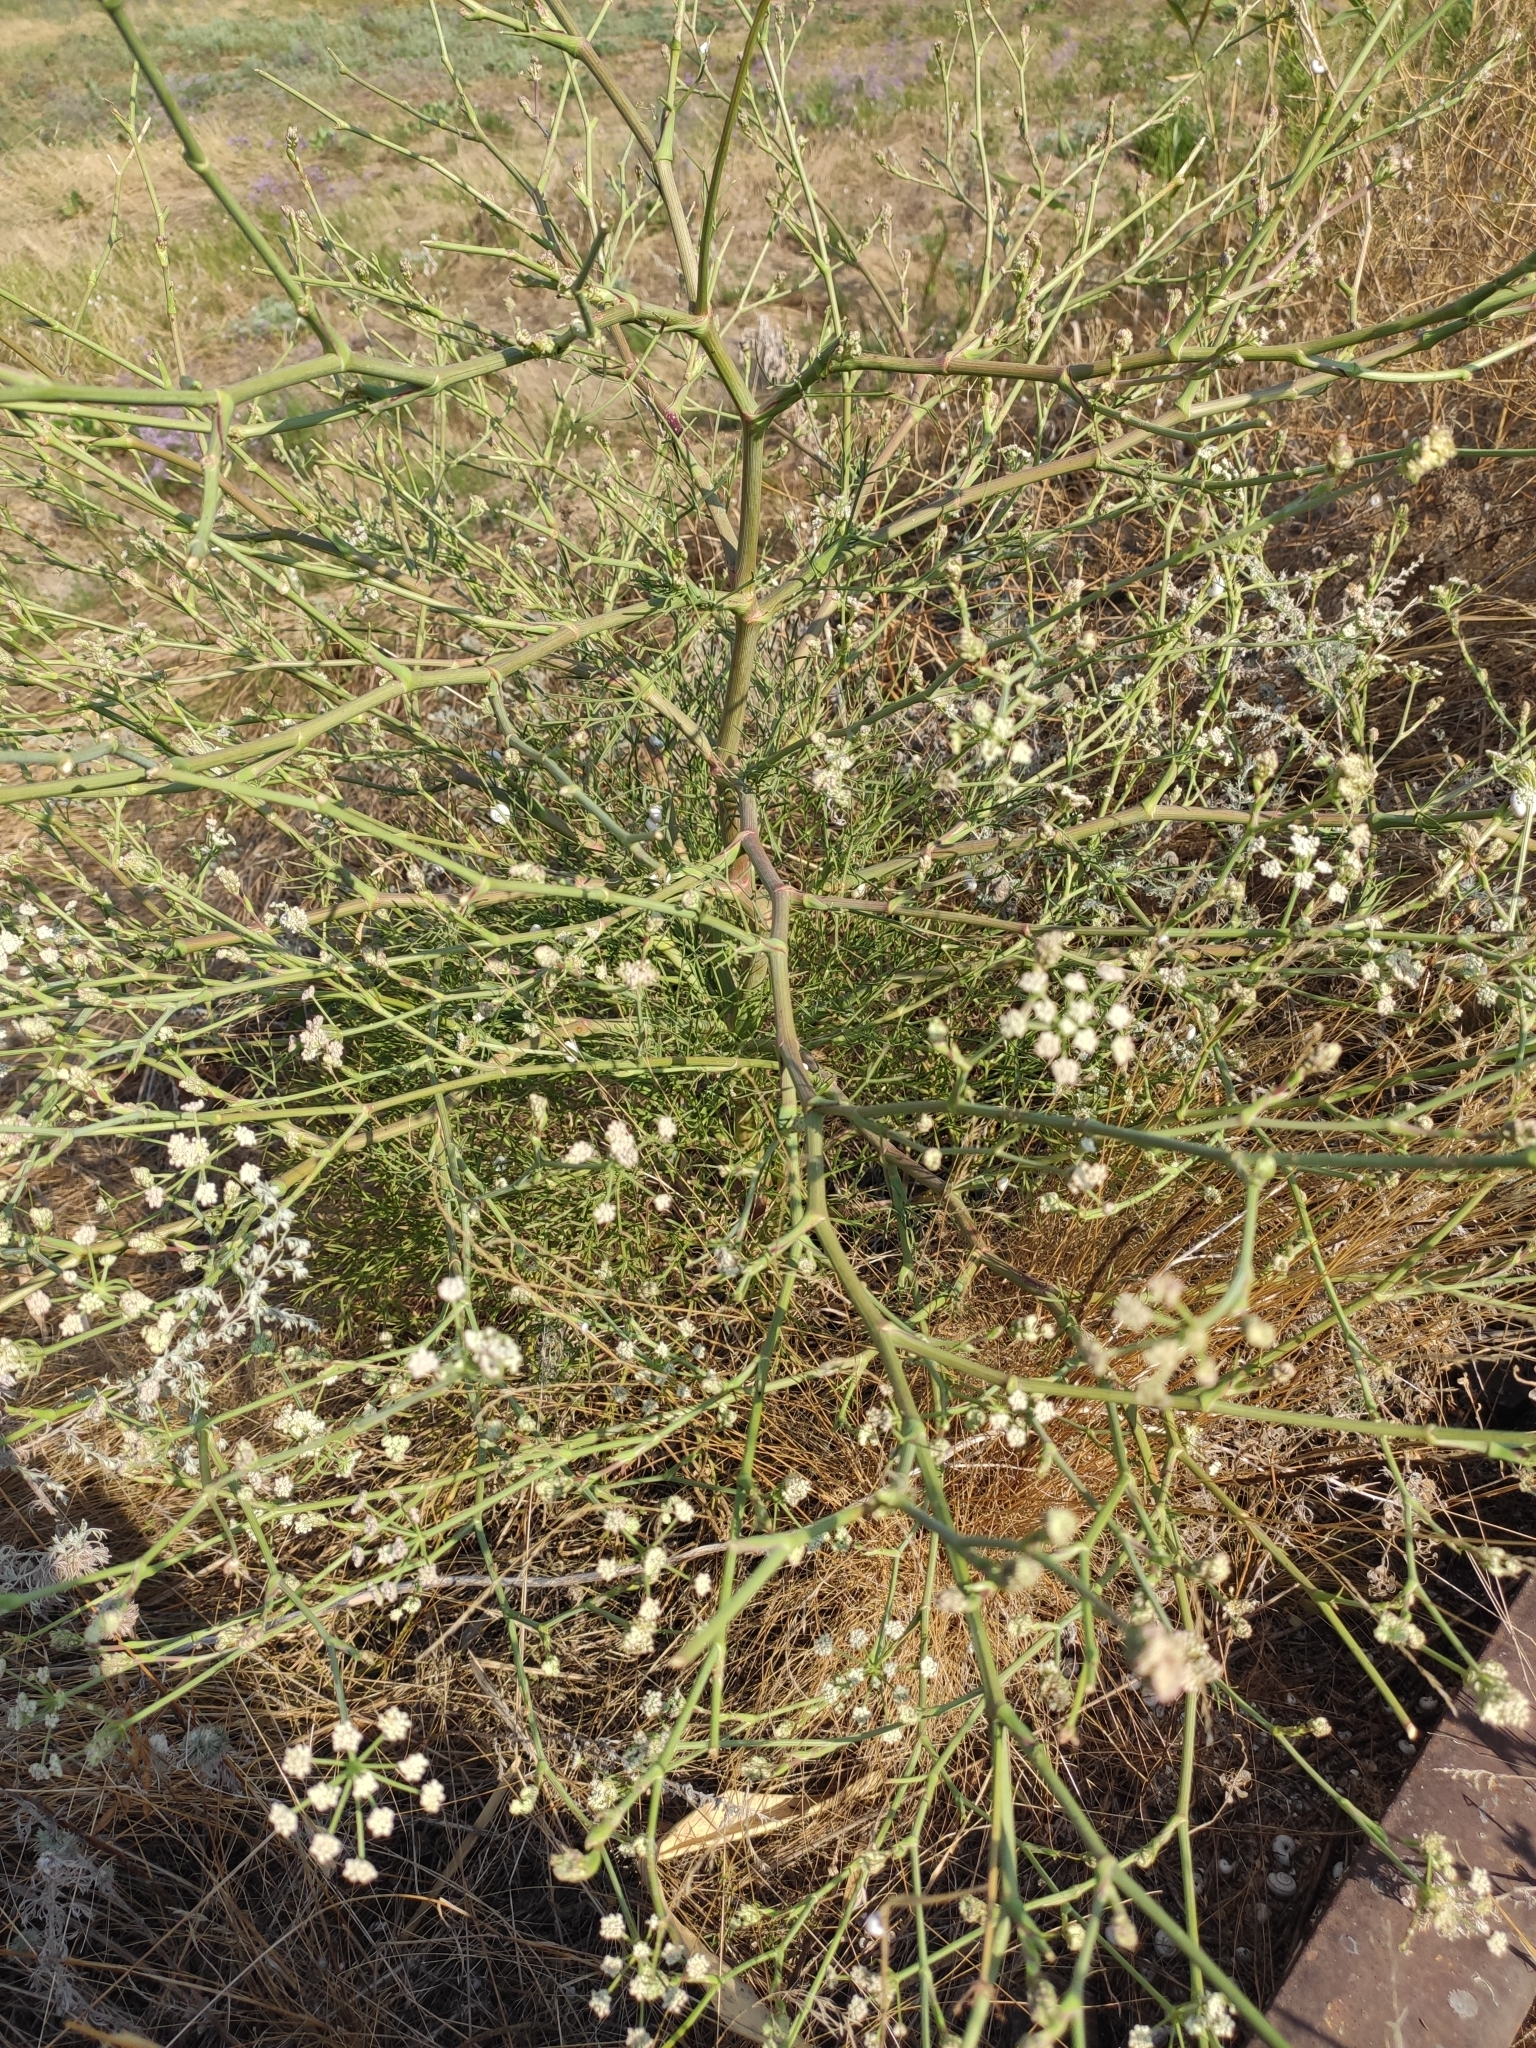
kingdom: Plantae
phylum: Tracheophyta
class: Magnoliopsida
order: Apiales
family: Apiaceae
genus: Seseli
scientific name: Seseli arenarium
